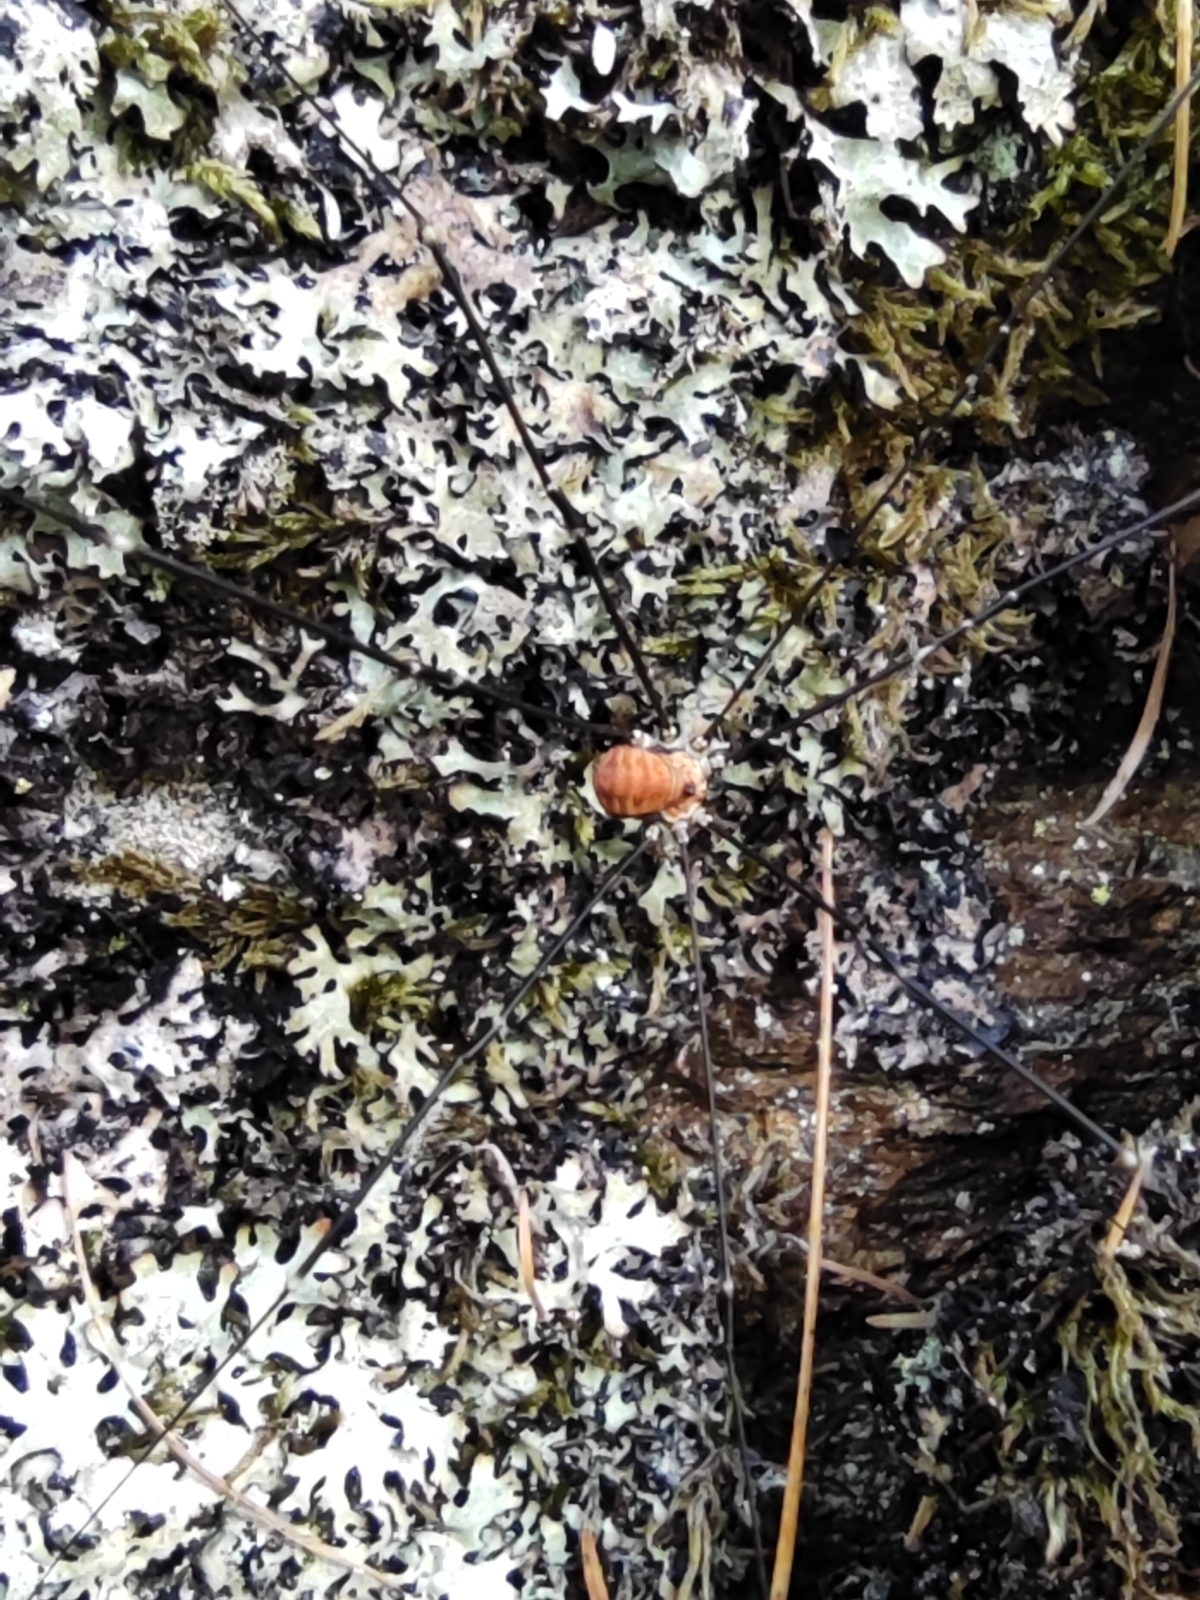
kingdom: Animalia
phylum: Arthropoda
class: Arachnida
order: Opiliones
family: Sclerosomatidae
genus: Leiobunum
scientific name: Leiobunum limbatum
